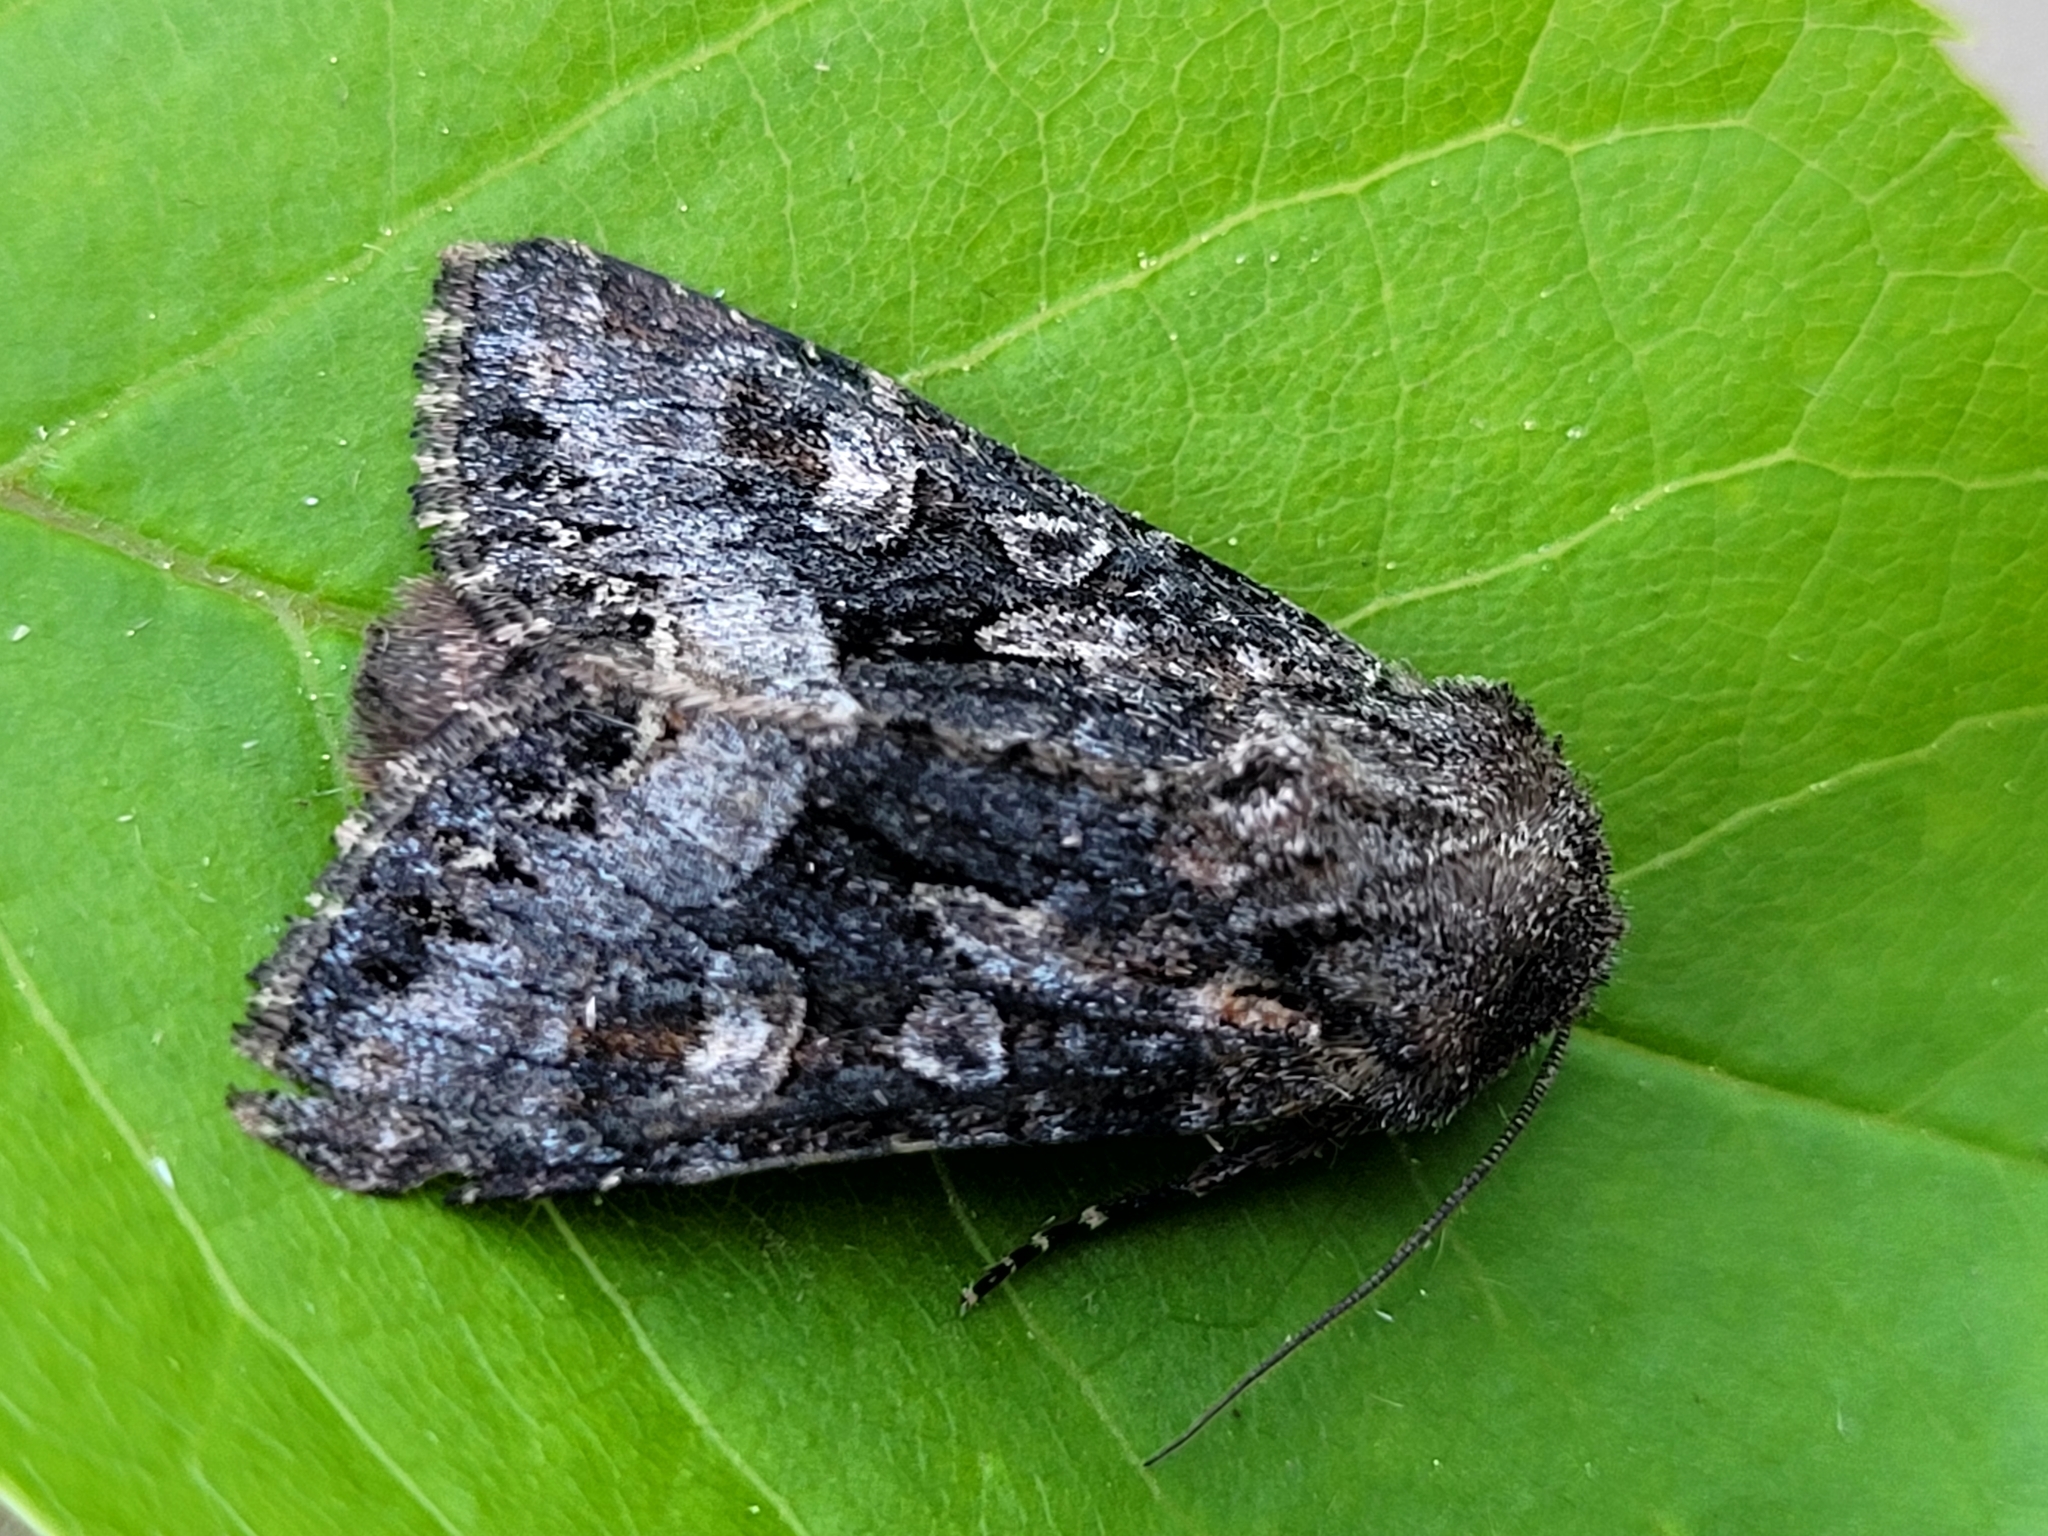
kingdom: Animalia
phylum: Arthropoda
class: Insecta
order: Lepidoptera
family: Noctuidae
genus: Papestra
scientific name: Papestra quadrata
